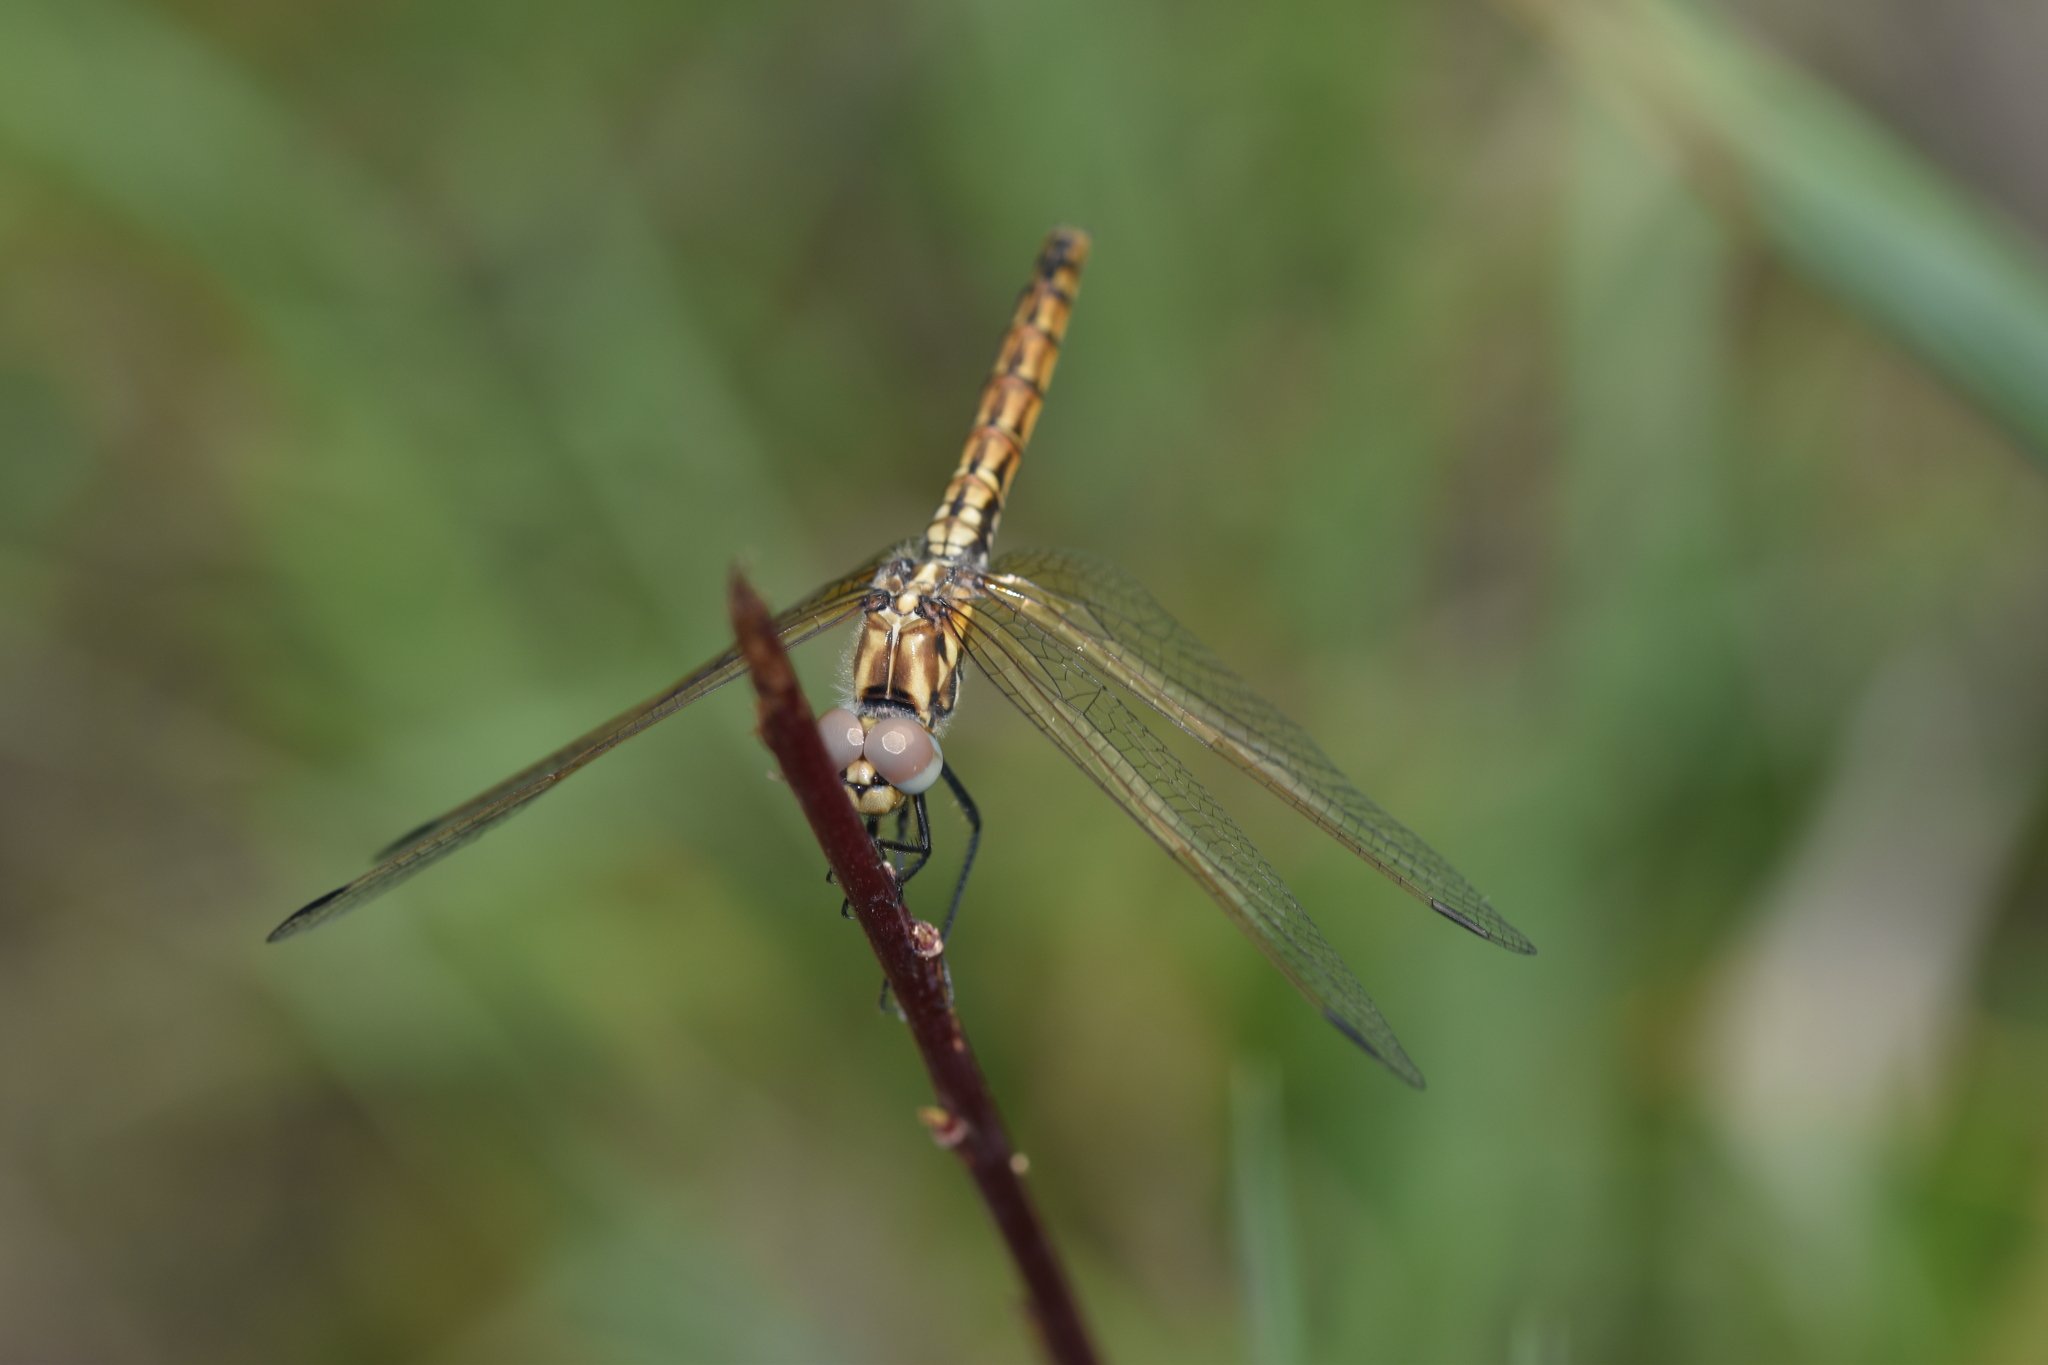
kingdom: Animalia
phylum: Arthropoda
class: Insecta
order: Odonata
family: Libellulidae
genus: Trithemis
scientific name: Trithemis annulata
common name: Violet dropwing
